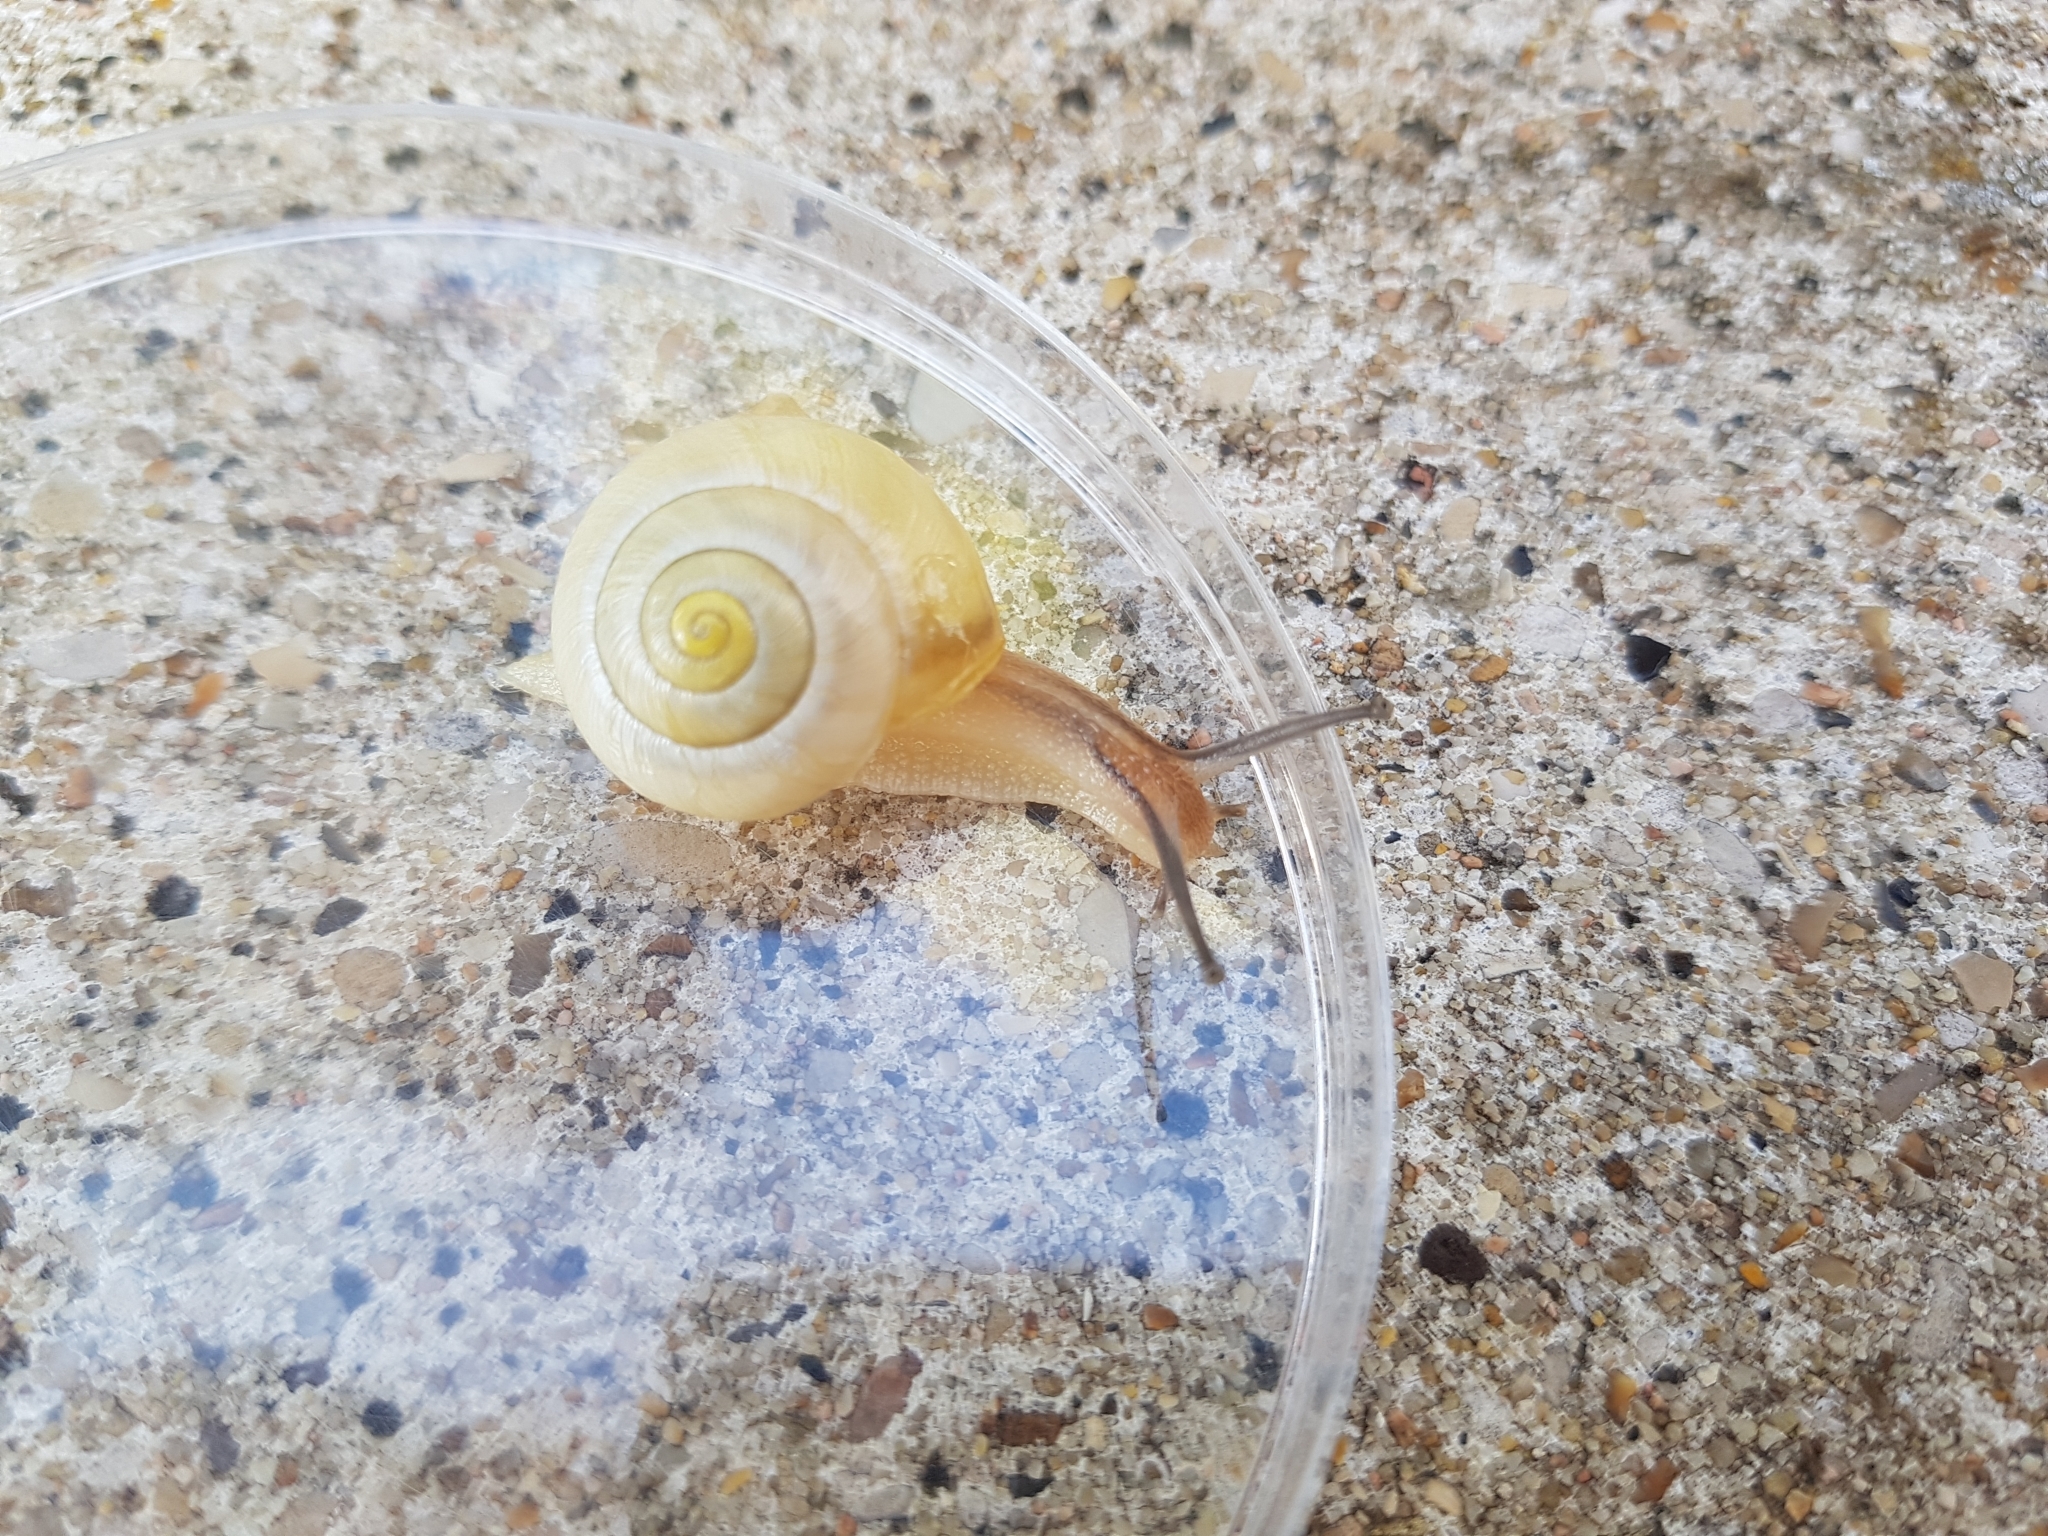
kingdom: Animalia
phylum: Mollusca
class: Gastropoda
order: Stylommatophora
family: Helicidae
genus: Cepaea
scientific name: Cepaea
